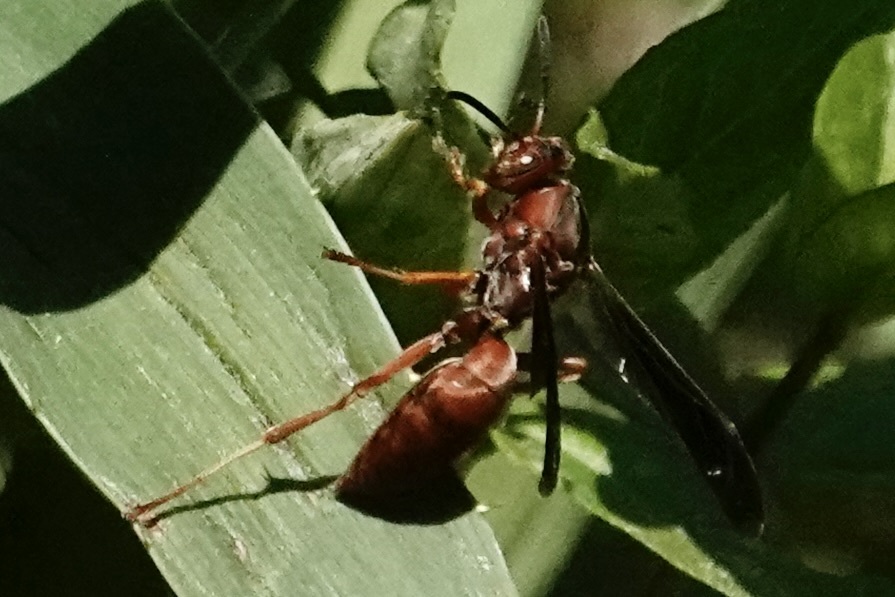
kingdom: Animalia
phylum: Arthropoda
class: Insecta
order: Hymenoptera
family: Vespidae
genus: Fuscopolistes
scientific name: Fuscopolistes
